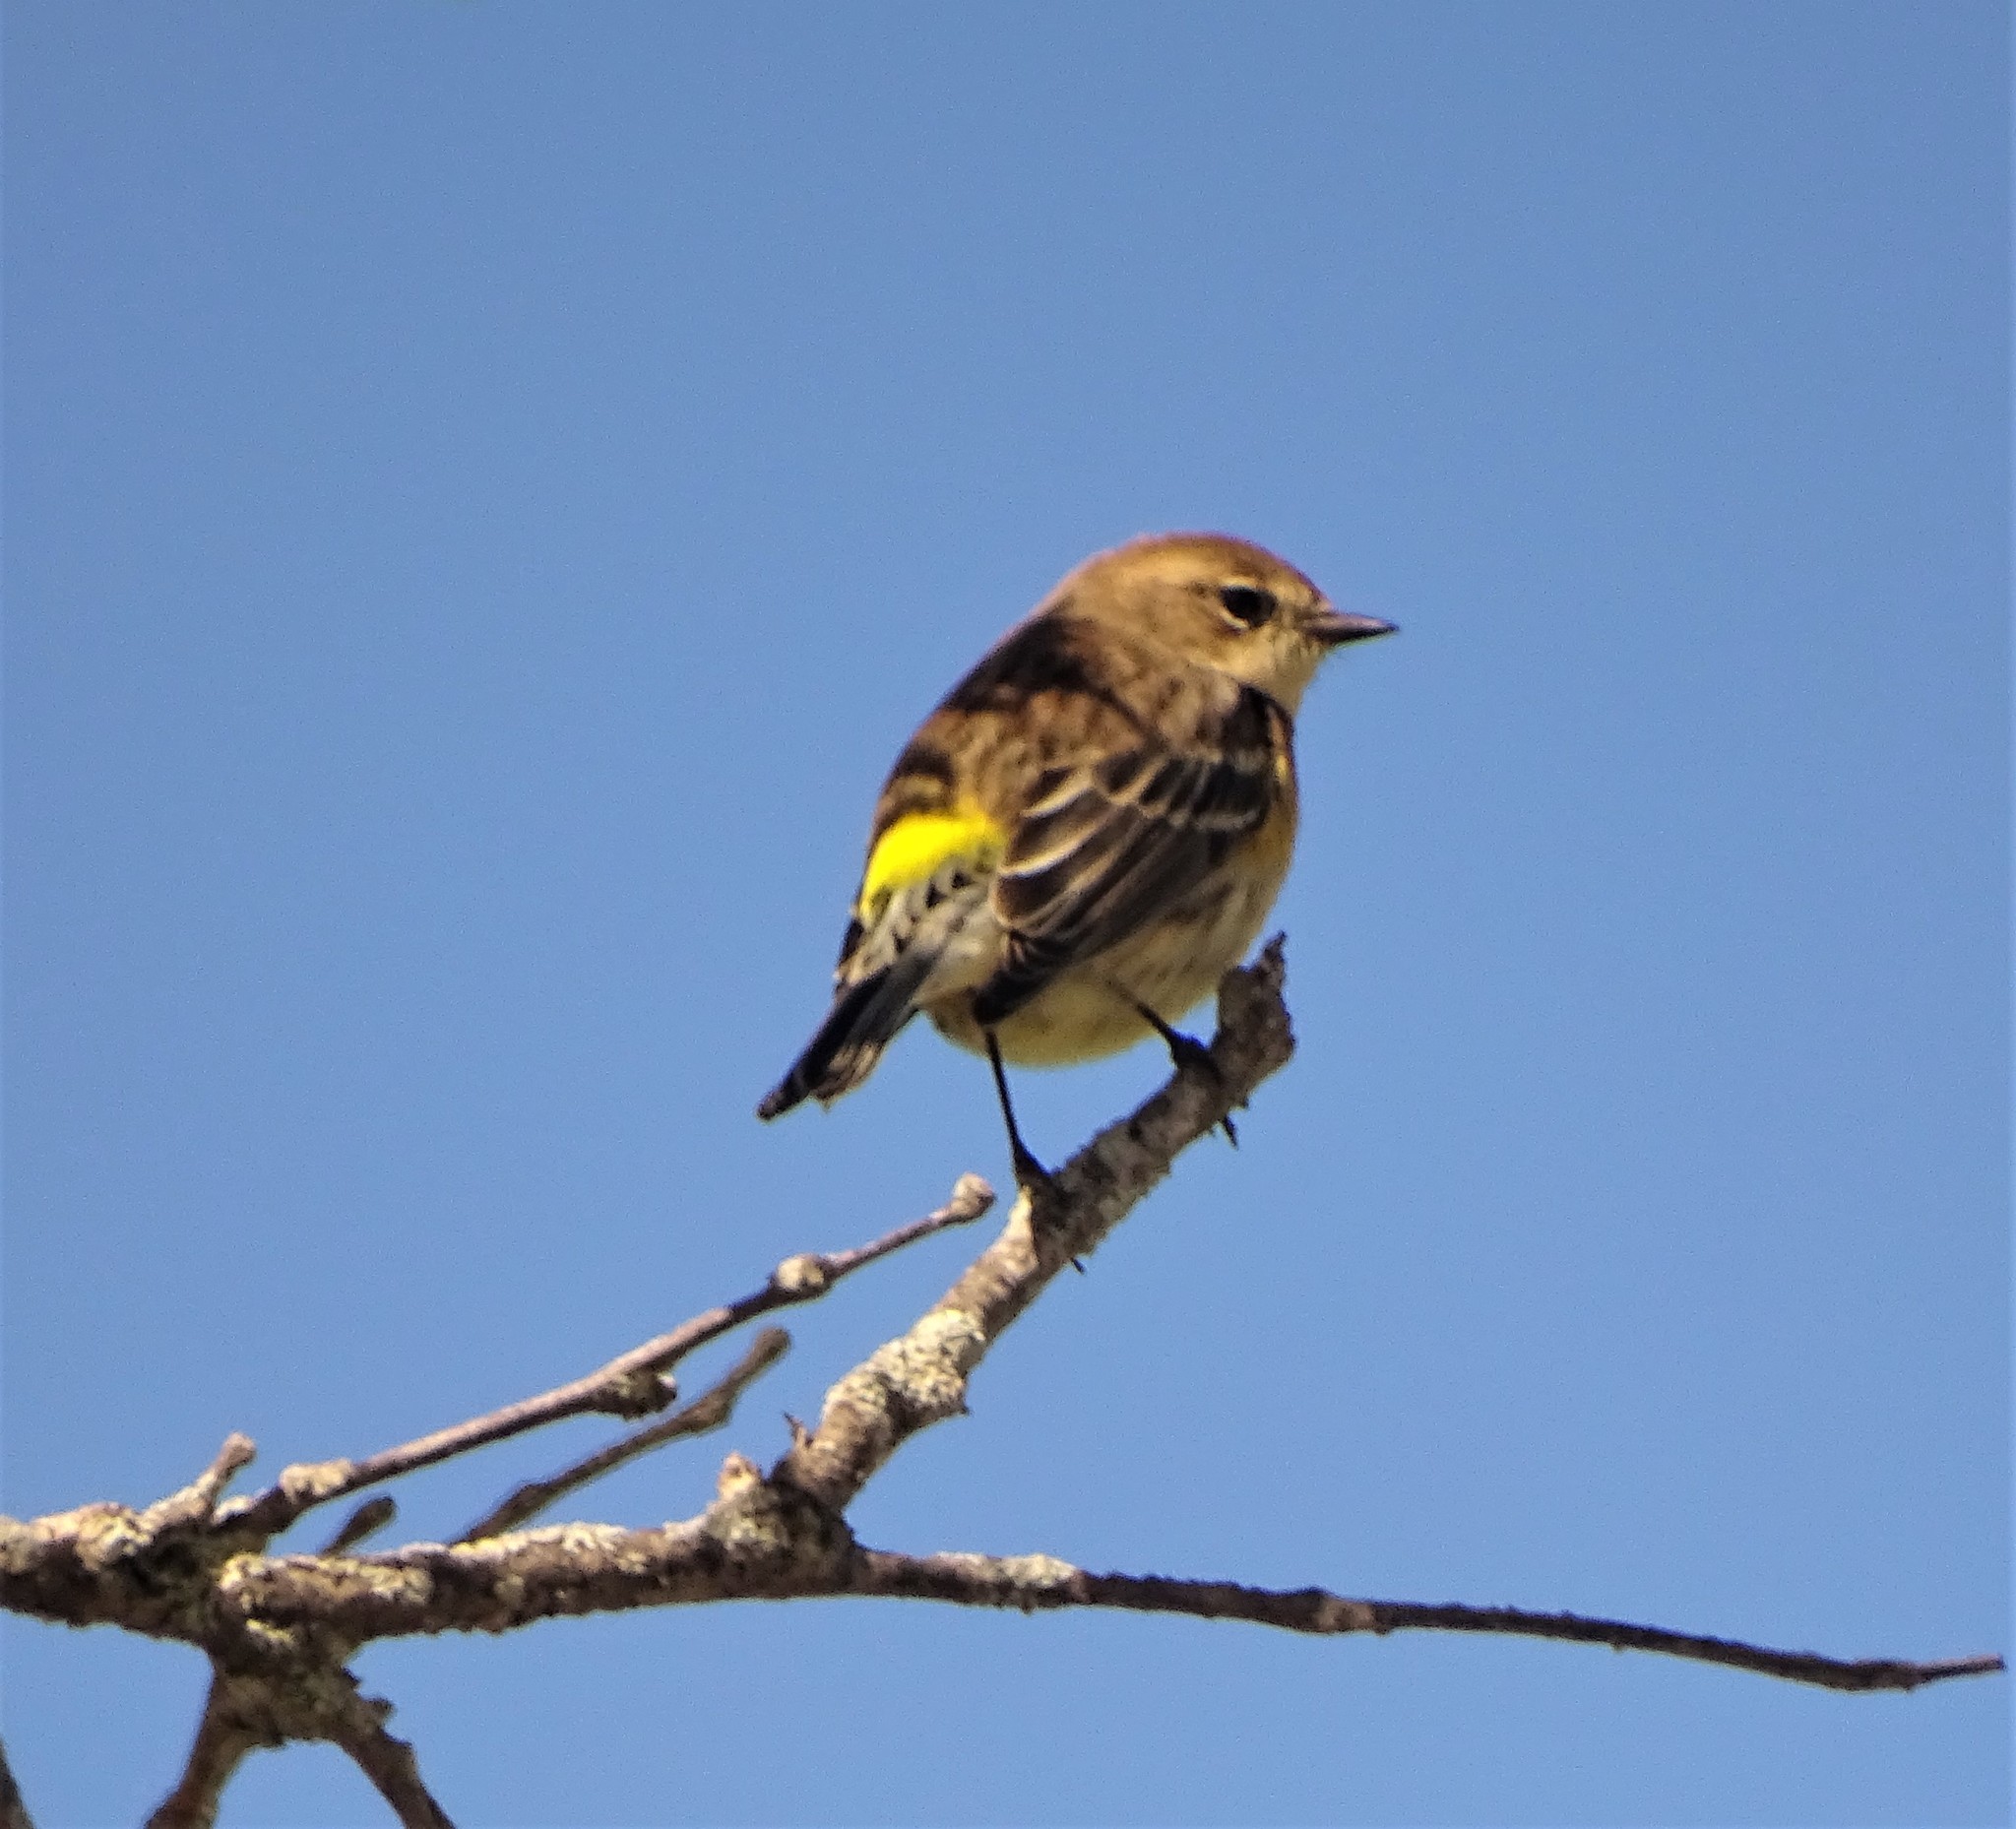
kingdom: Animalia
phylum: Chordata
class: Aves
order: Passeriformes
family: Parulidae
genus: Setophaga
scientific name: Setophaga coronata
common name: Myrtle warbler
